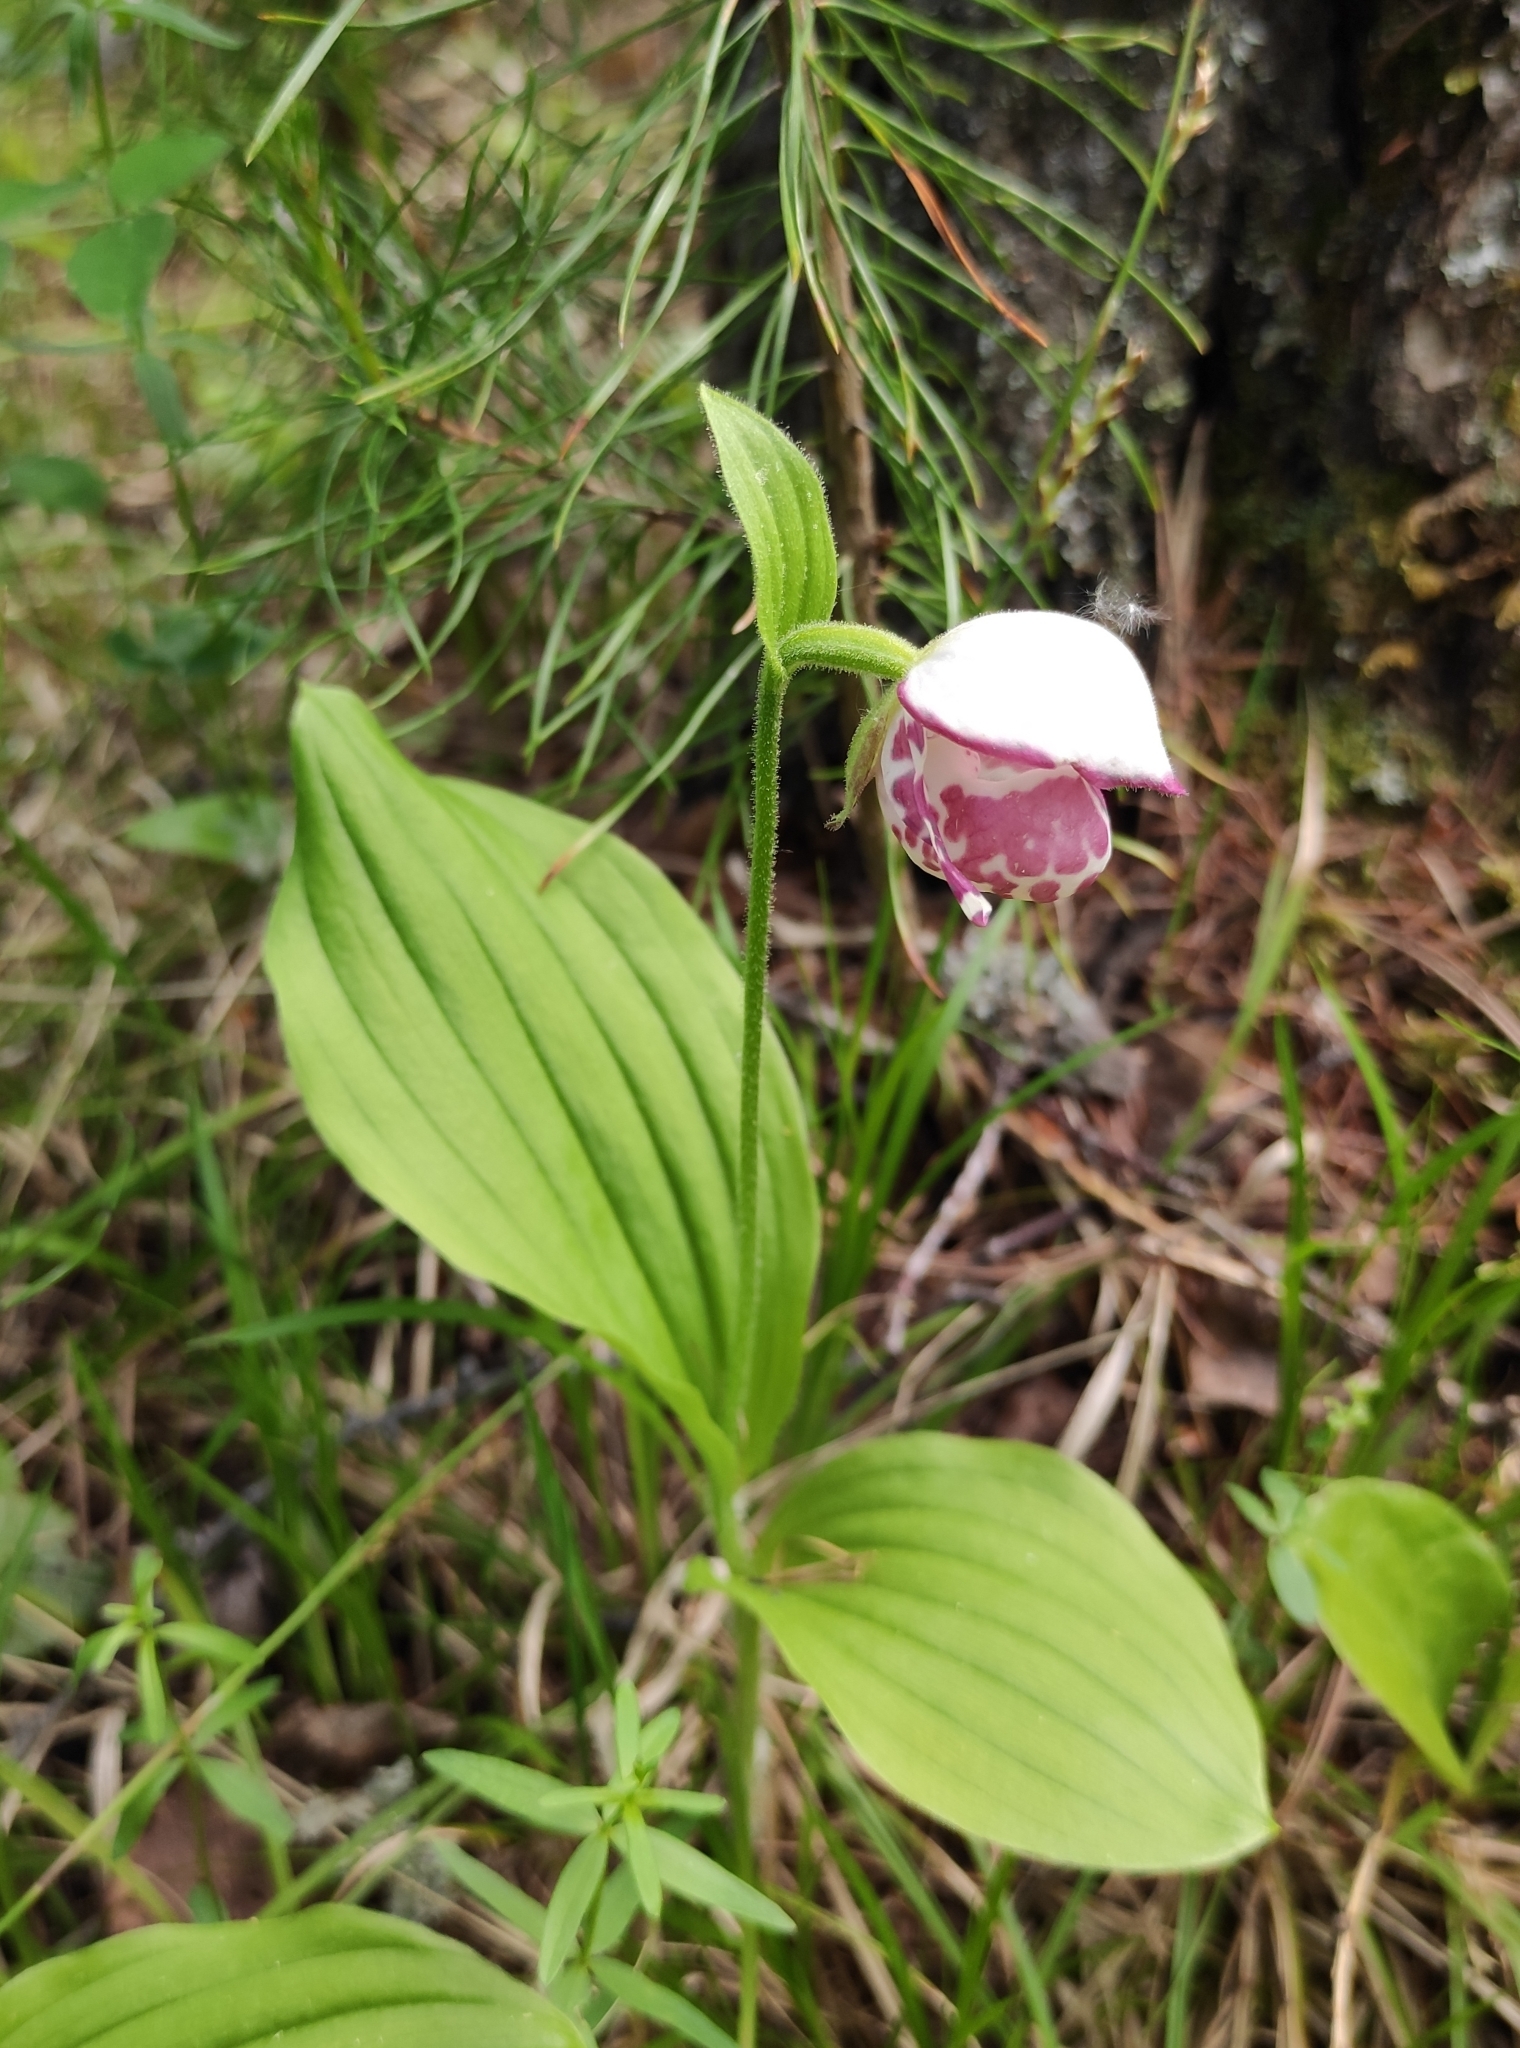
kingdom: Plantae
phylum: Tracheophyta
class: Liliopsida
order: Asparagales
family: Orchidaceae
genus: Cypripedium
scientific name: Cypripedium guttatum
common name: Pink lady slipper
